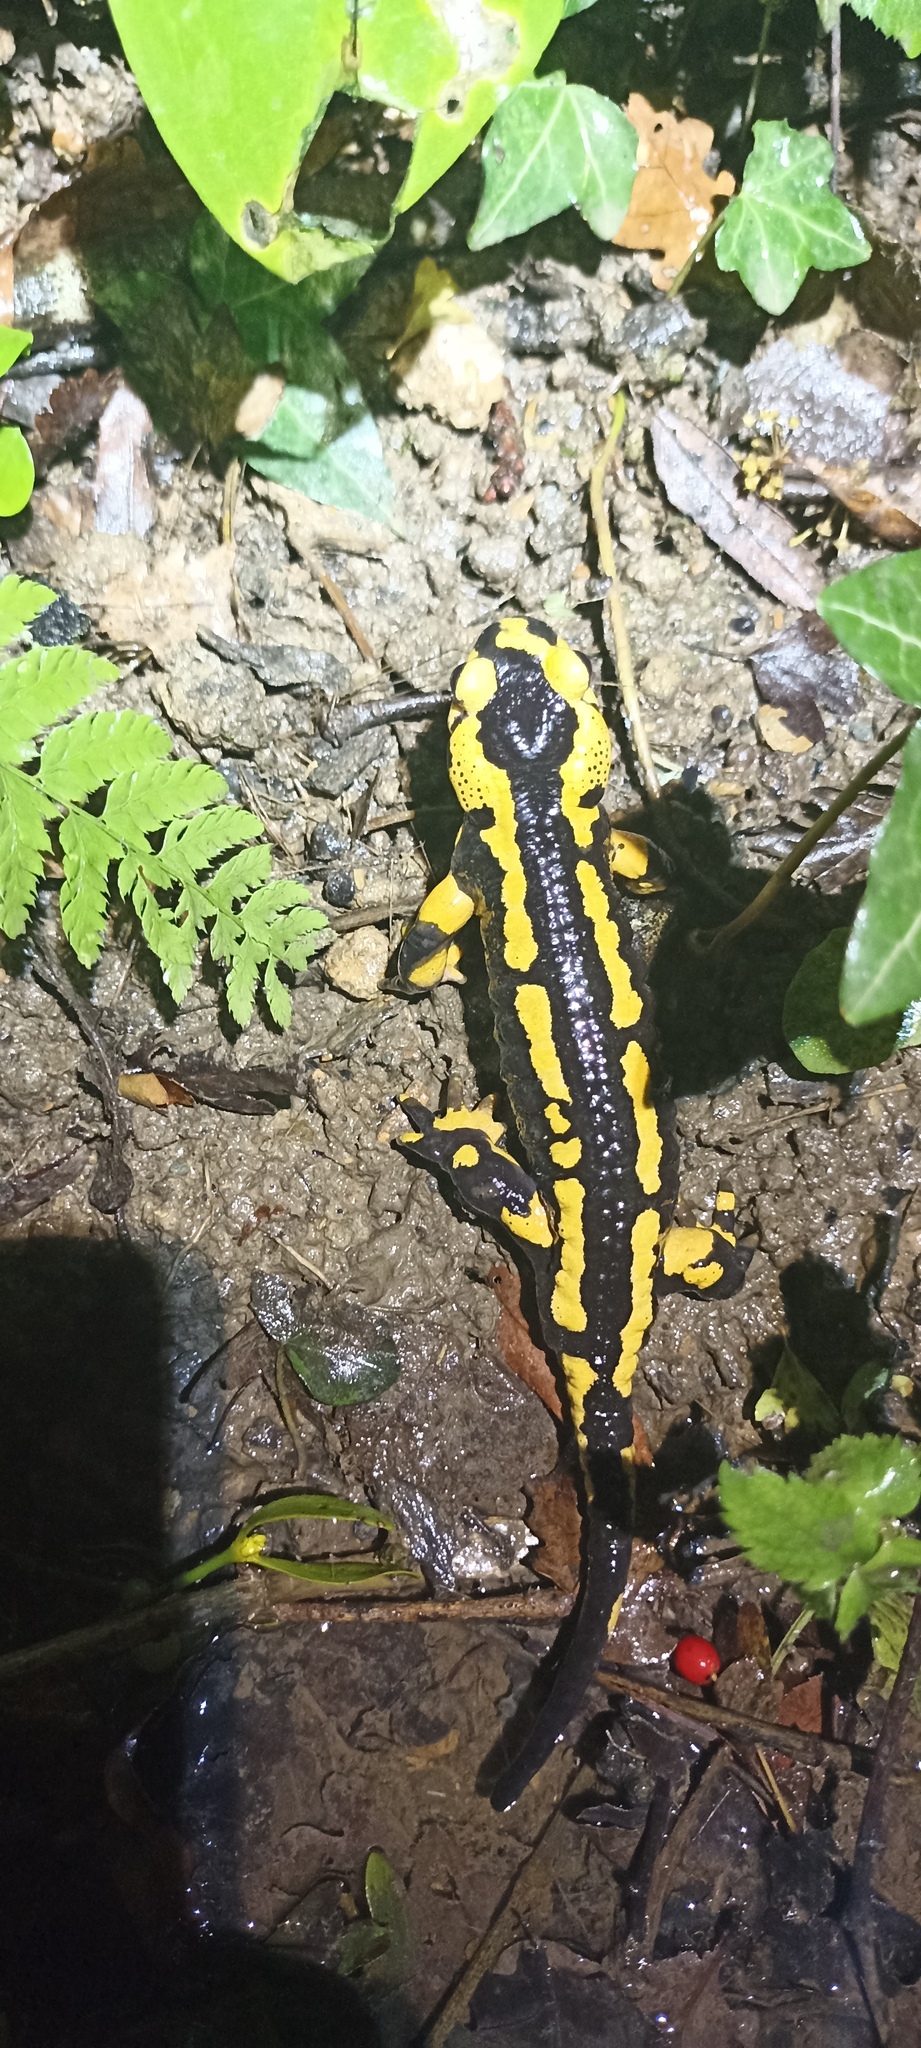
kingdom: Animalia
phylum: Chordata
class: Amphibia
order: Caudata
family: Salamandridae
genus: Salamandra
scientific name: Salamandra salamandra
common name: Fire salamander
